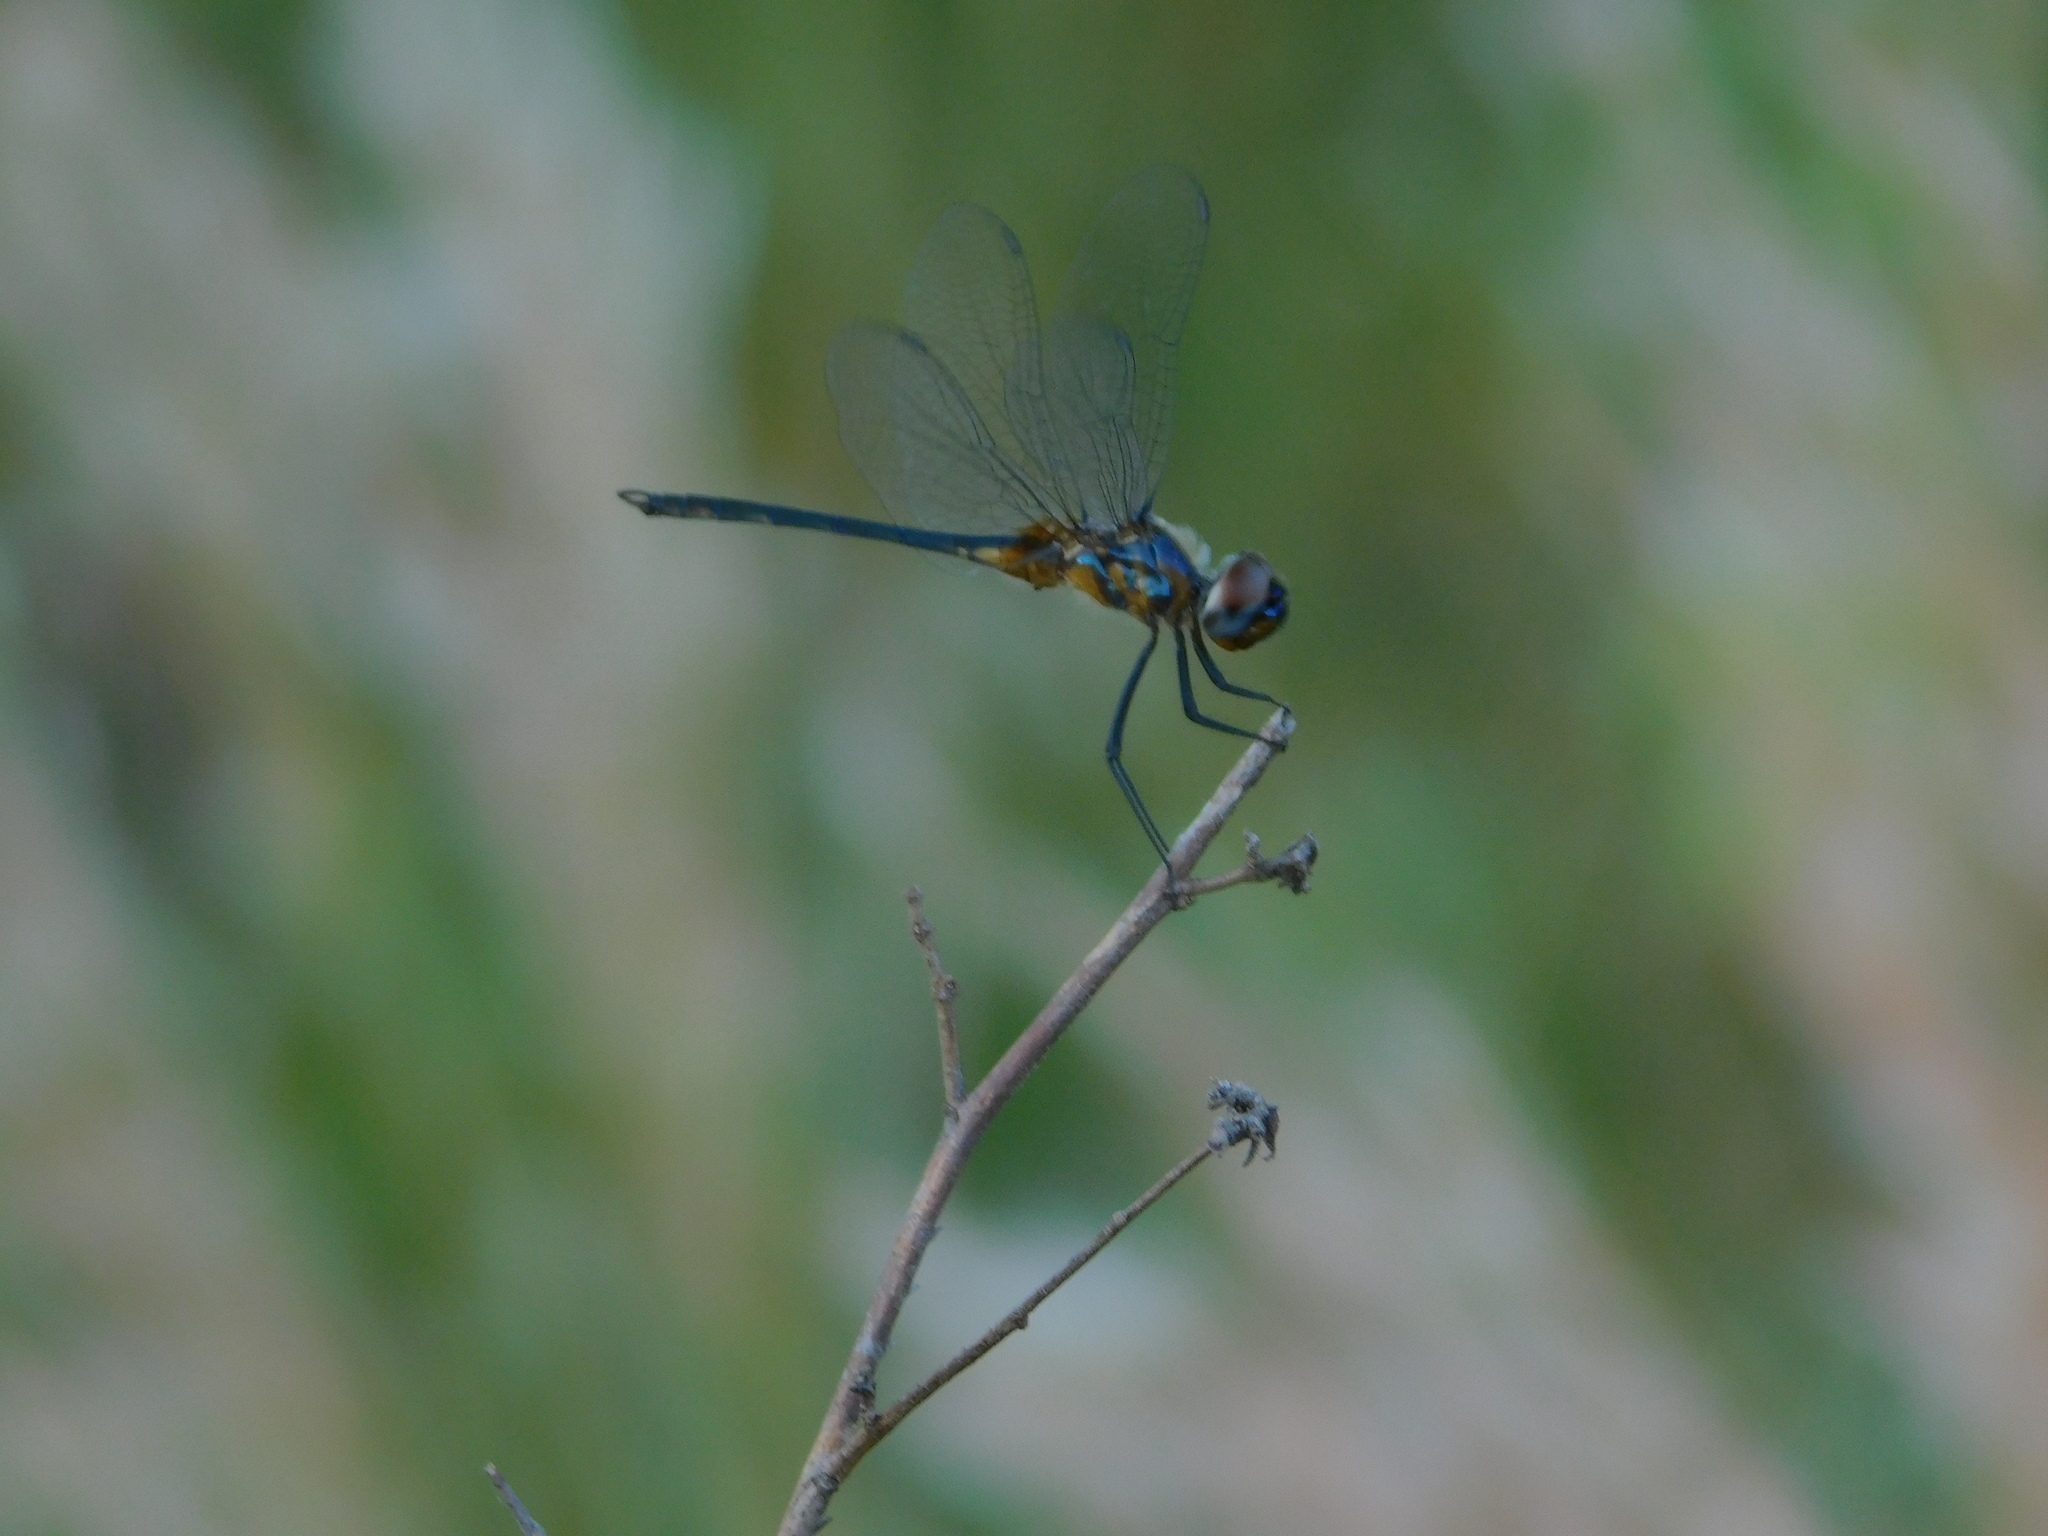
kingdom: Animalia
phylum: Arthropoda
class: Insecta
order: Odonata
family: Libellulidae
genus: Idiataphe
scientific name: Idiataphe cubensis
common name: Metallic pennant
